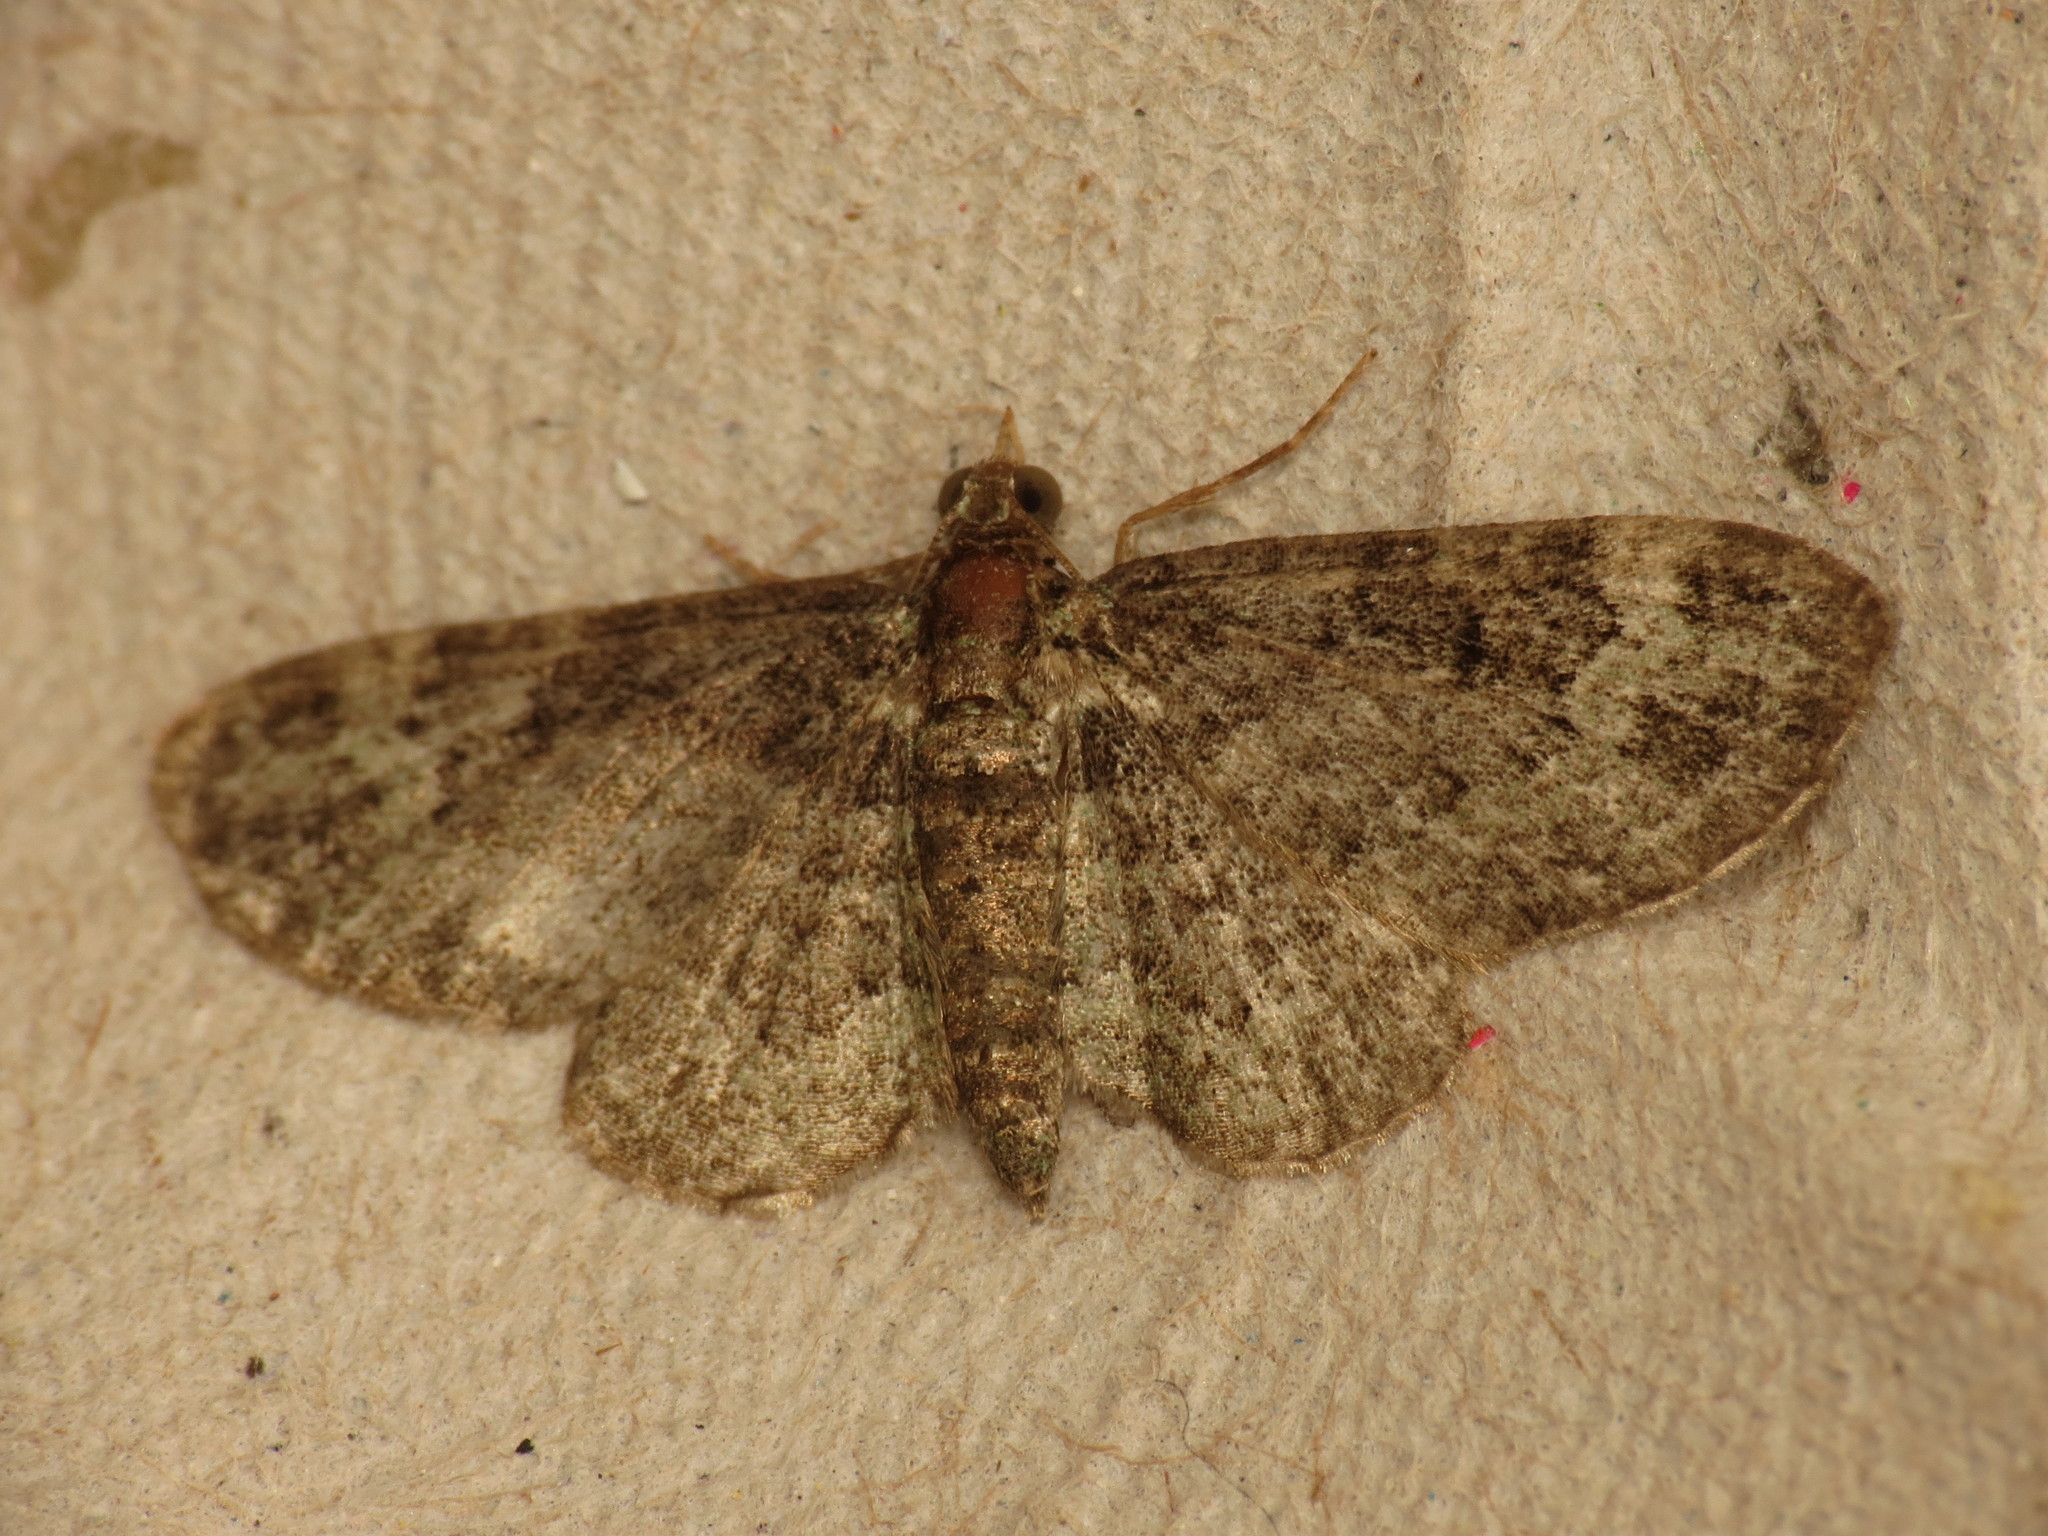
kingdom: Animalia
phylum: Arthropoda
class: Insecta
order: Lepidoptera
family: Geometridae
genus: Pasiphila
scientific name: Pasiphila rectangulata
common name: Green pug
